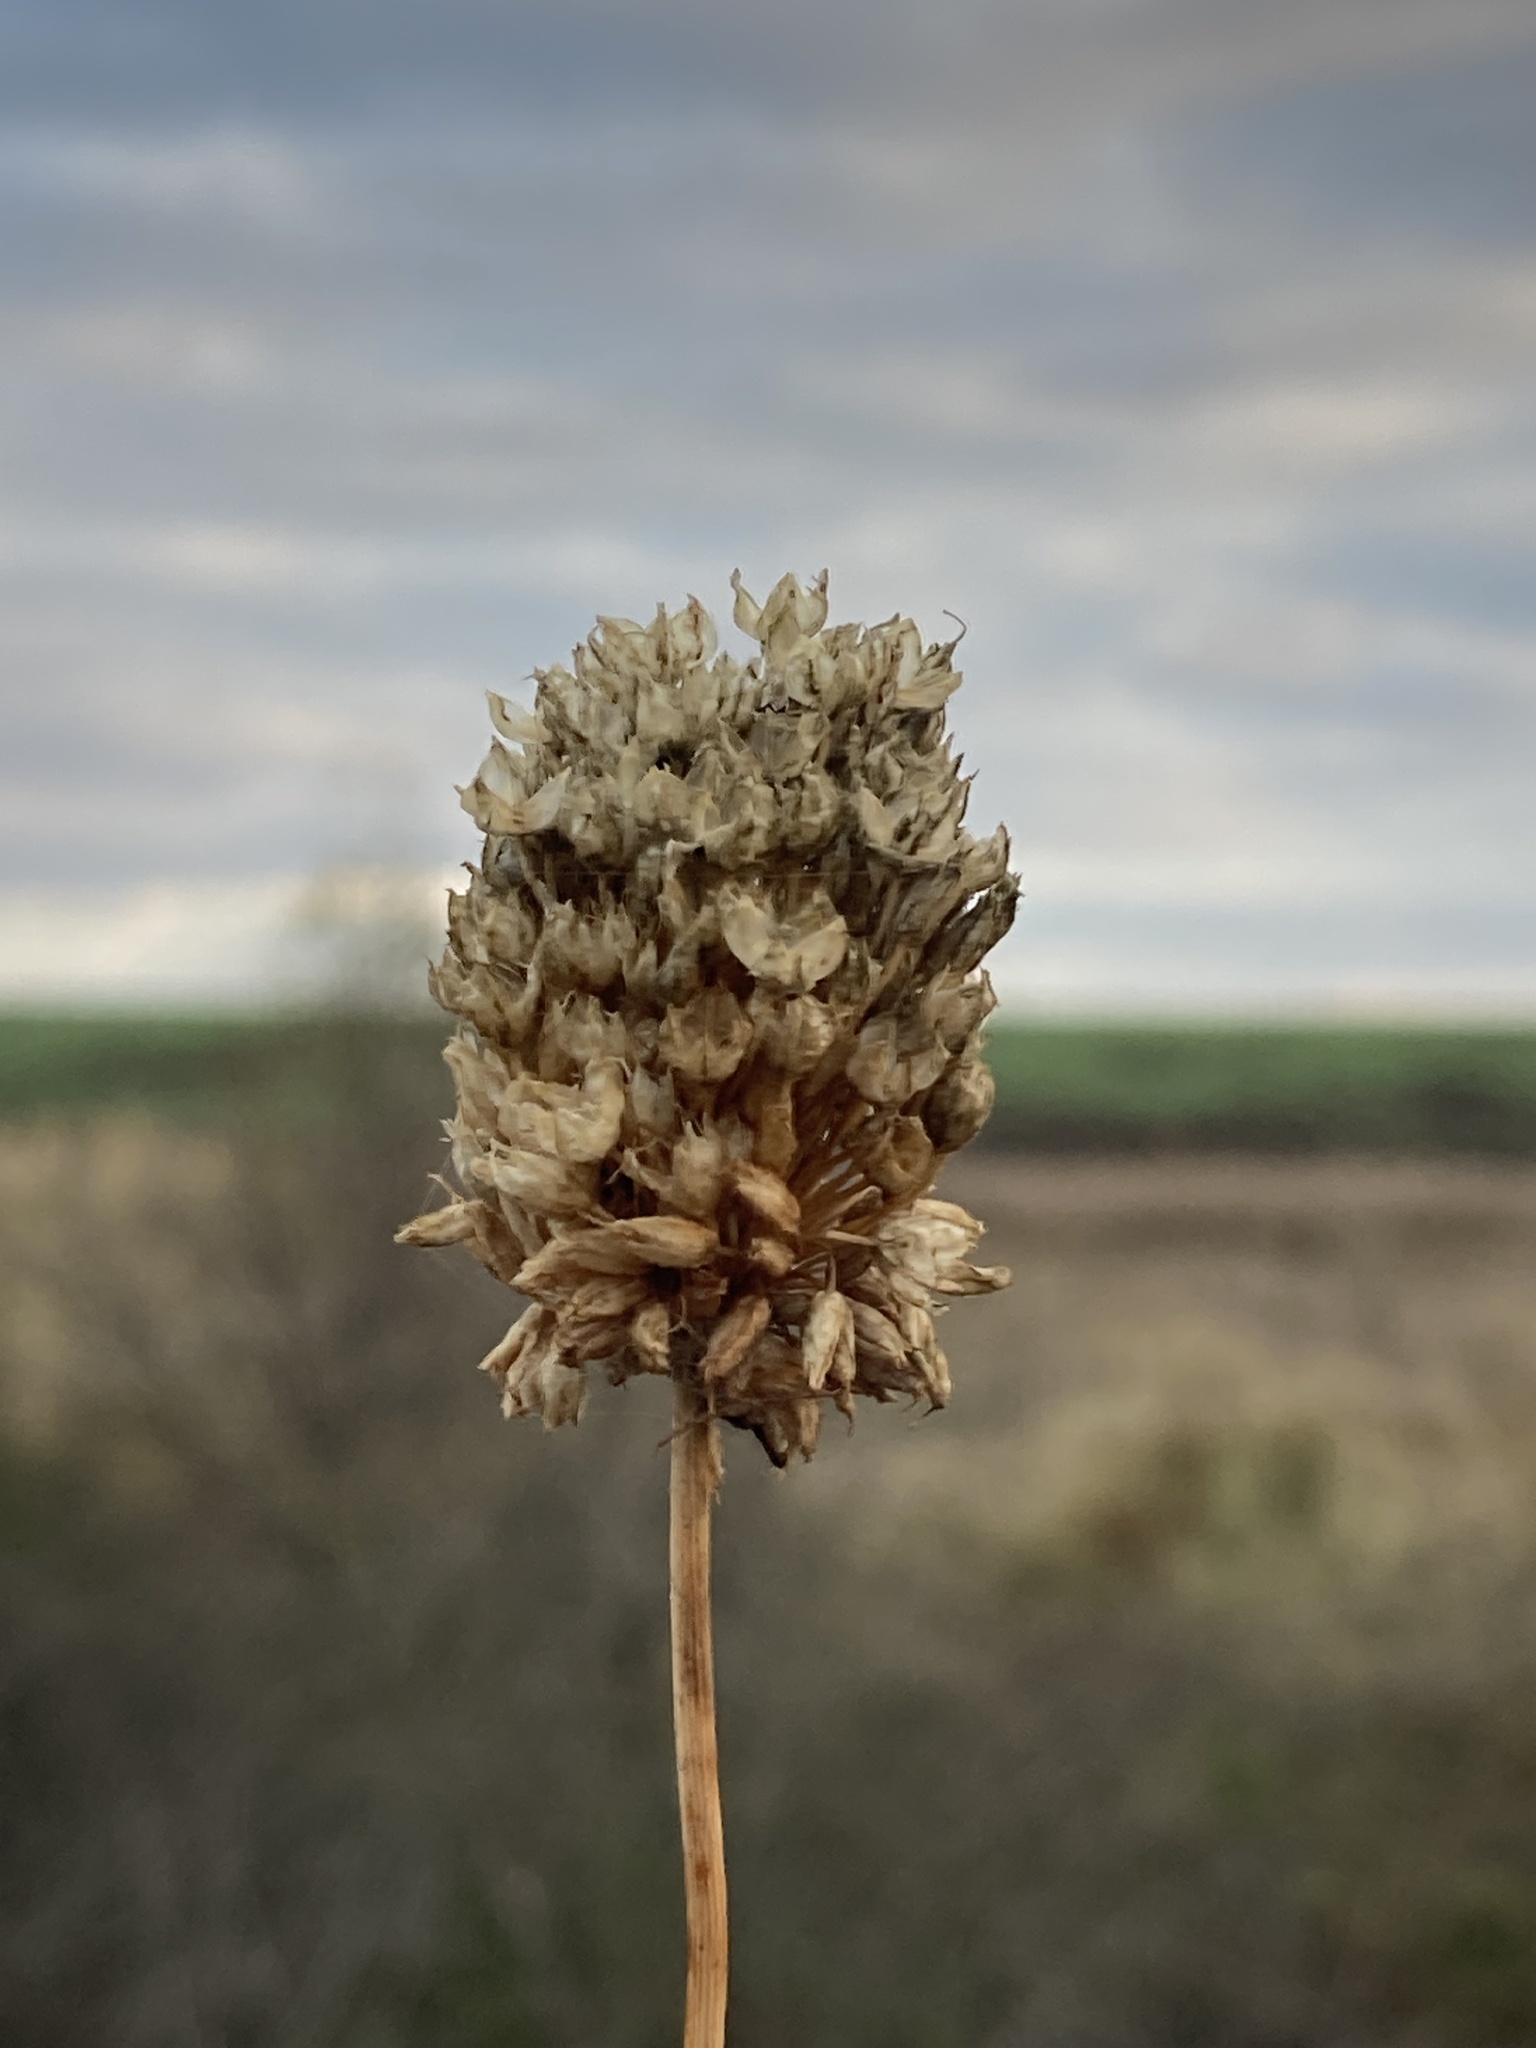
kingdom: Plantae
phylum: Tracheophyta
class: Liliopsida
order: Asparagales
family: Amaryllidaceae
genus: Allium
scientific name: Allium sphaerocephalon
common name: Round-headed leek
